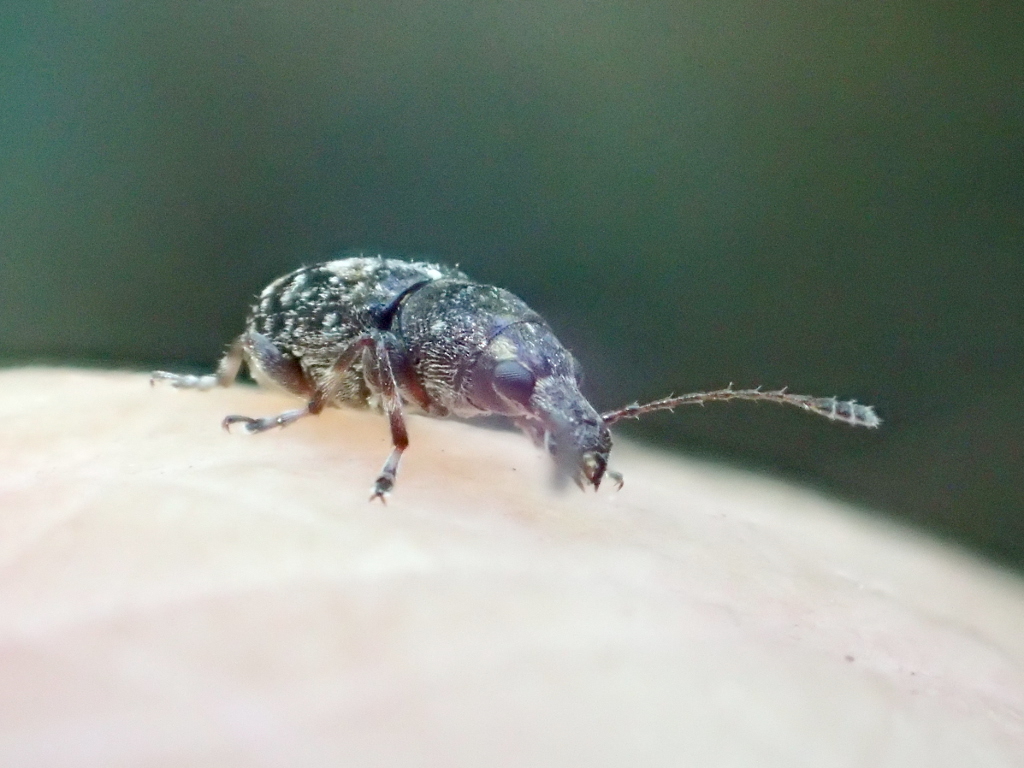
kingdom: Animalia
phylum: Arthropoda
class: Insecta
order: Coleoptera
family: Anthribidae
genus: Sharpius
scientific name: Sharpius
